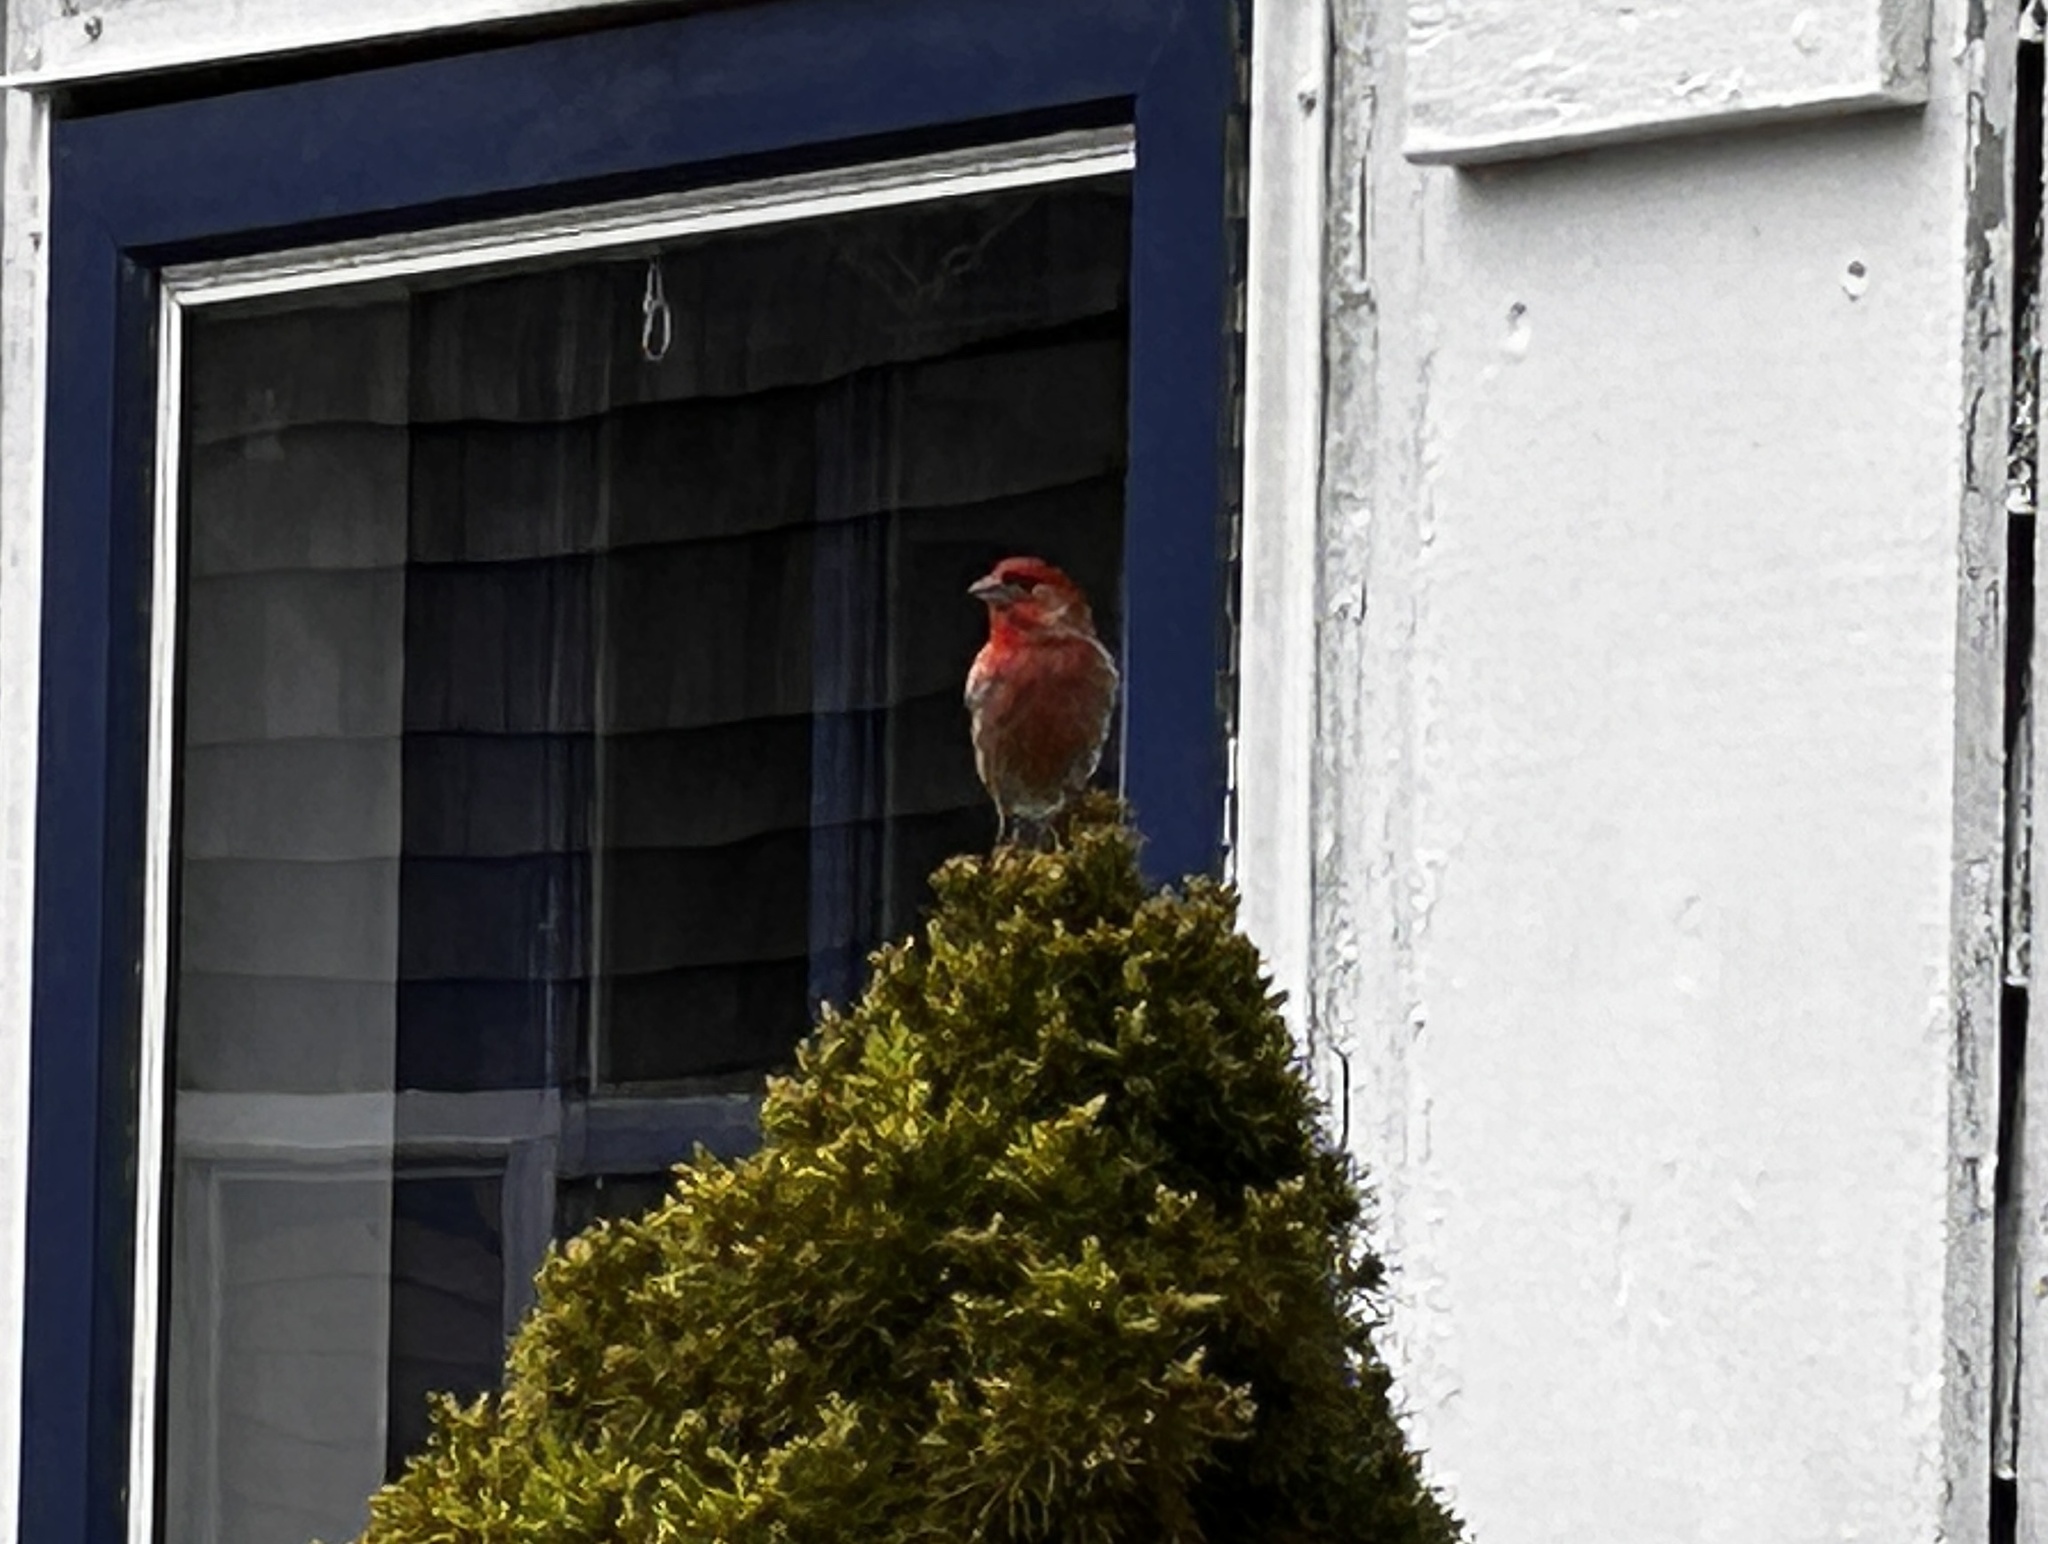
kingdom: Animalia
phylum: Chordata
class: Aves
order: Passeriformes
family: Fringillidae
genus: Haemorhous
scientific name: Haemorhous mexicanus
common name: House finch
